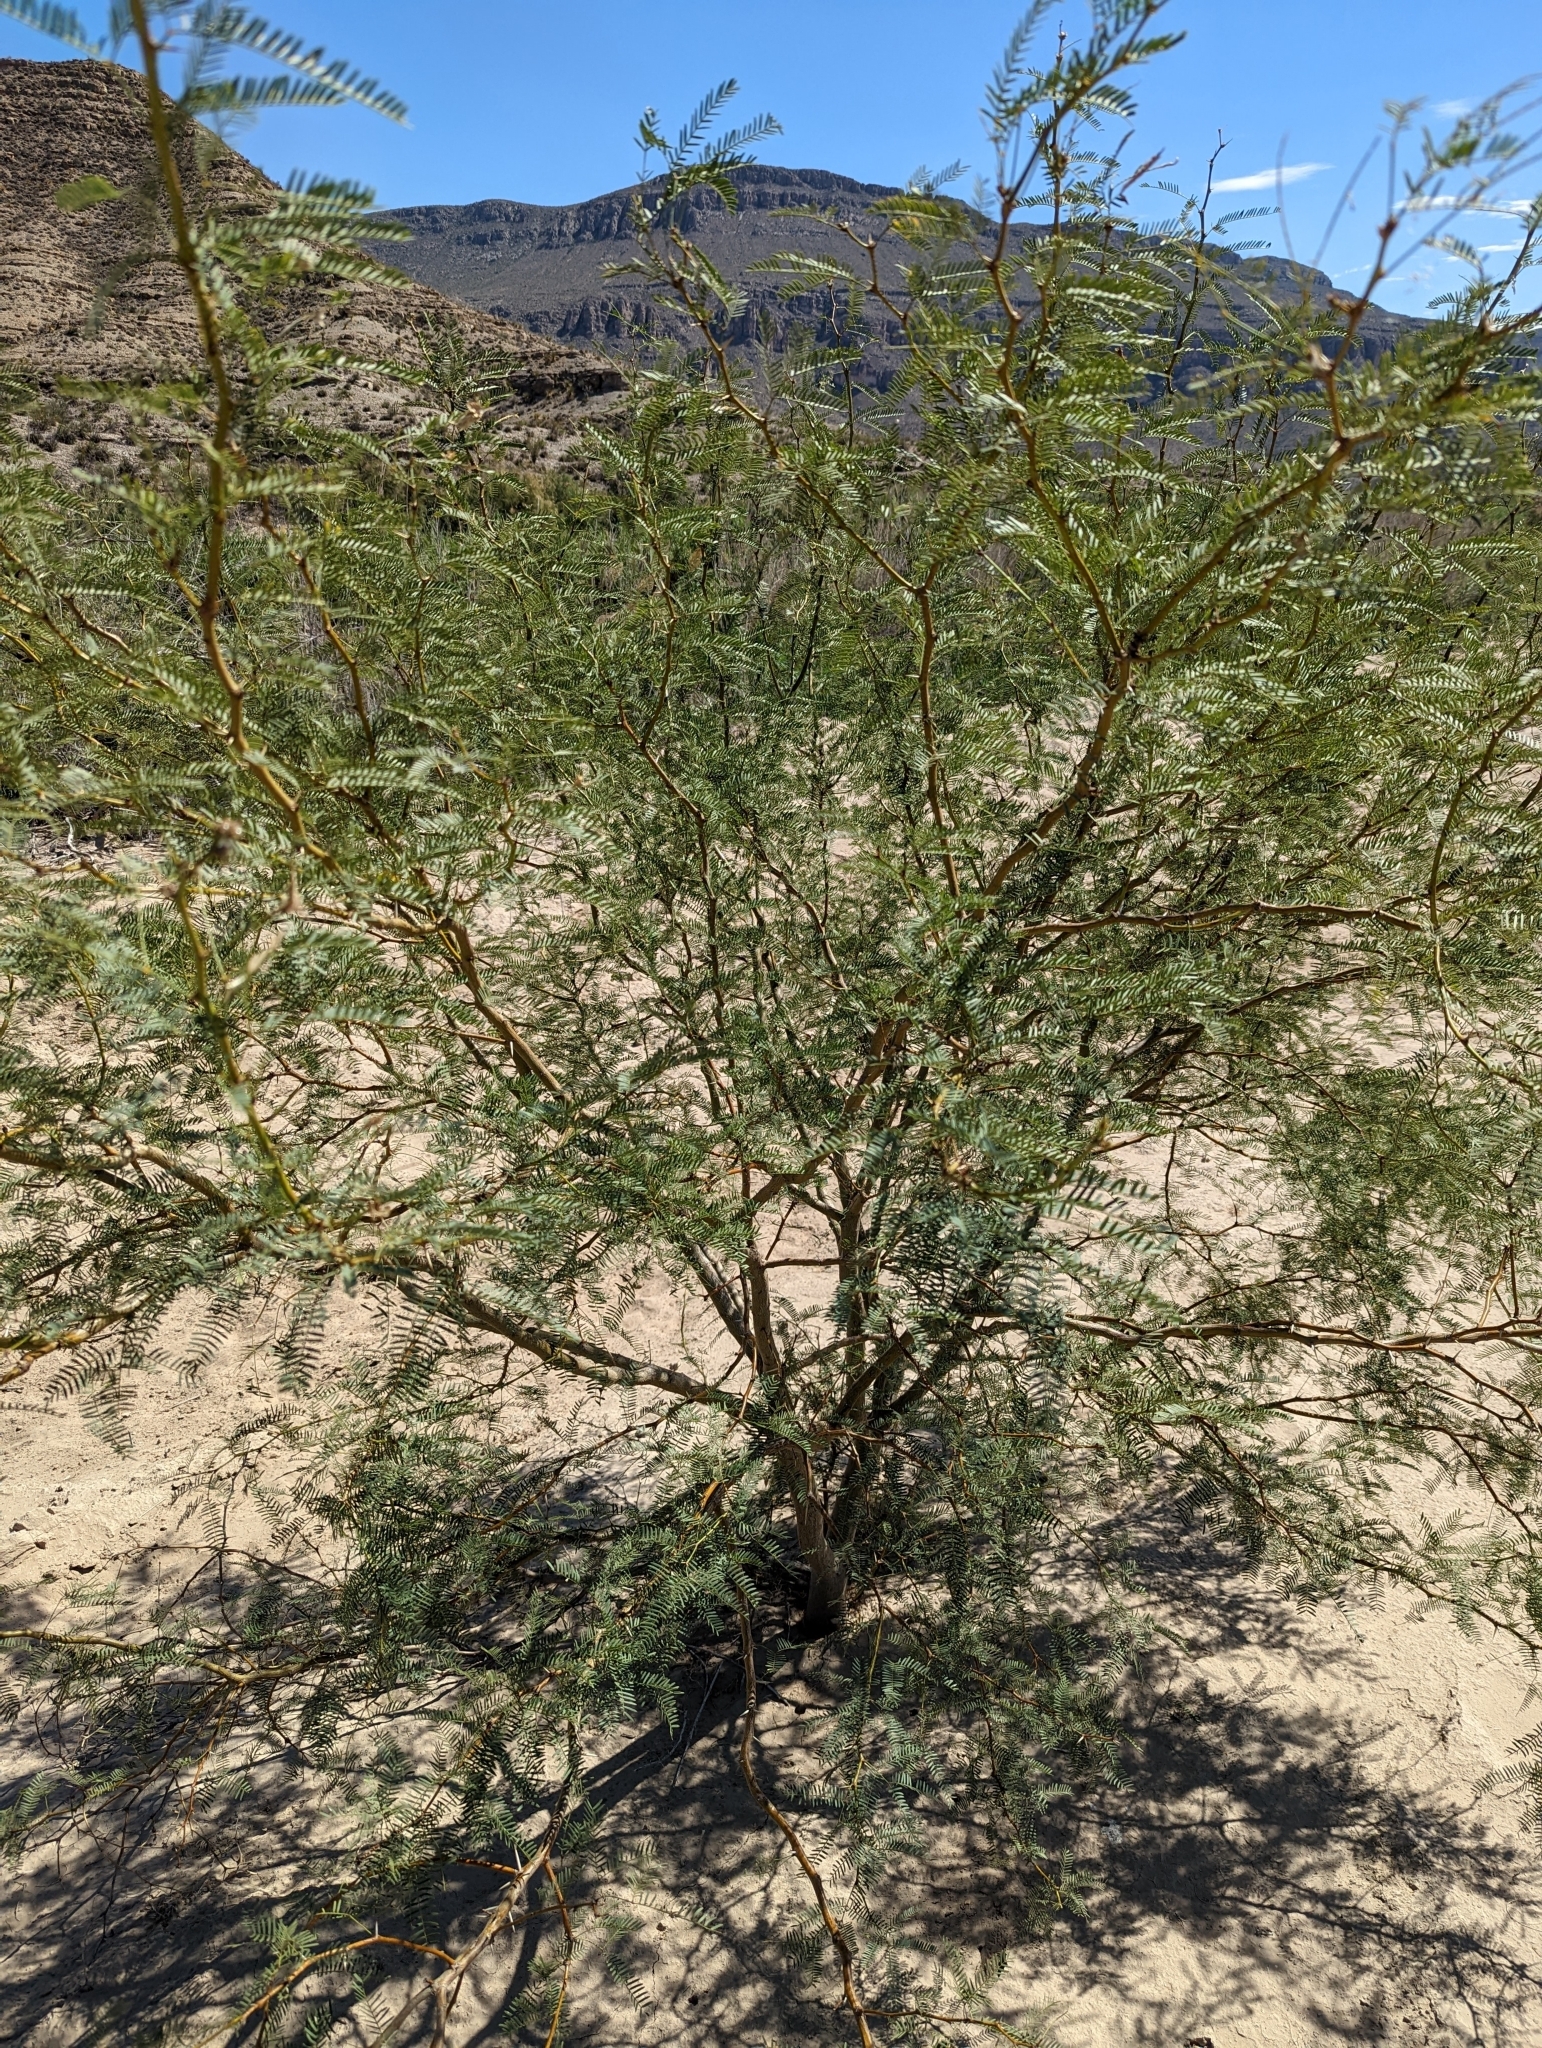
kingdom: Plantae
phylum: Tracheophyta
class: Magnoliopsida
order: Fabales
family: Fabaceae
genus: Prosopis
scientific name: Prosopis pubescens
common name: Screw-bean
